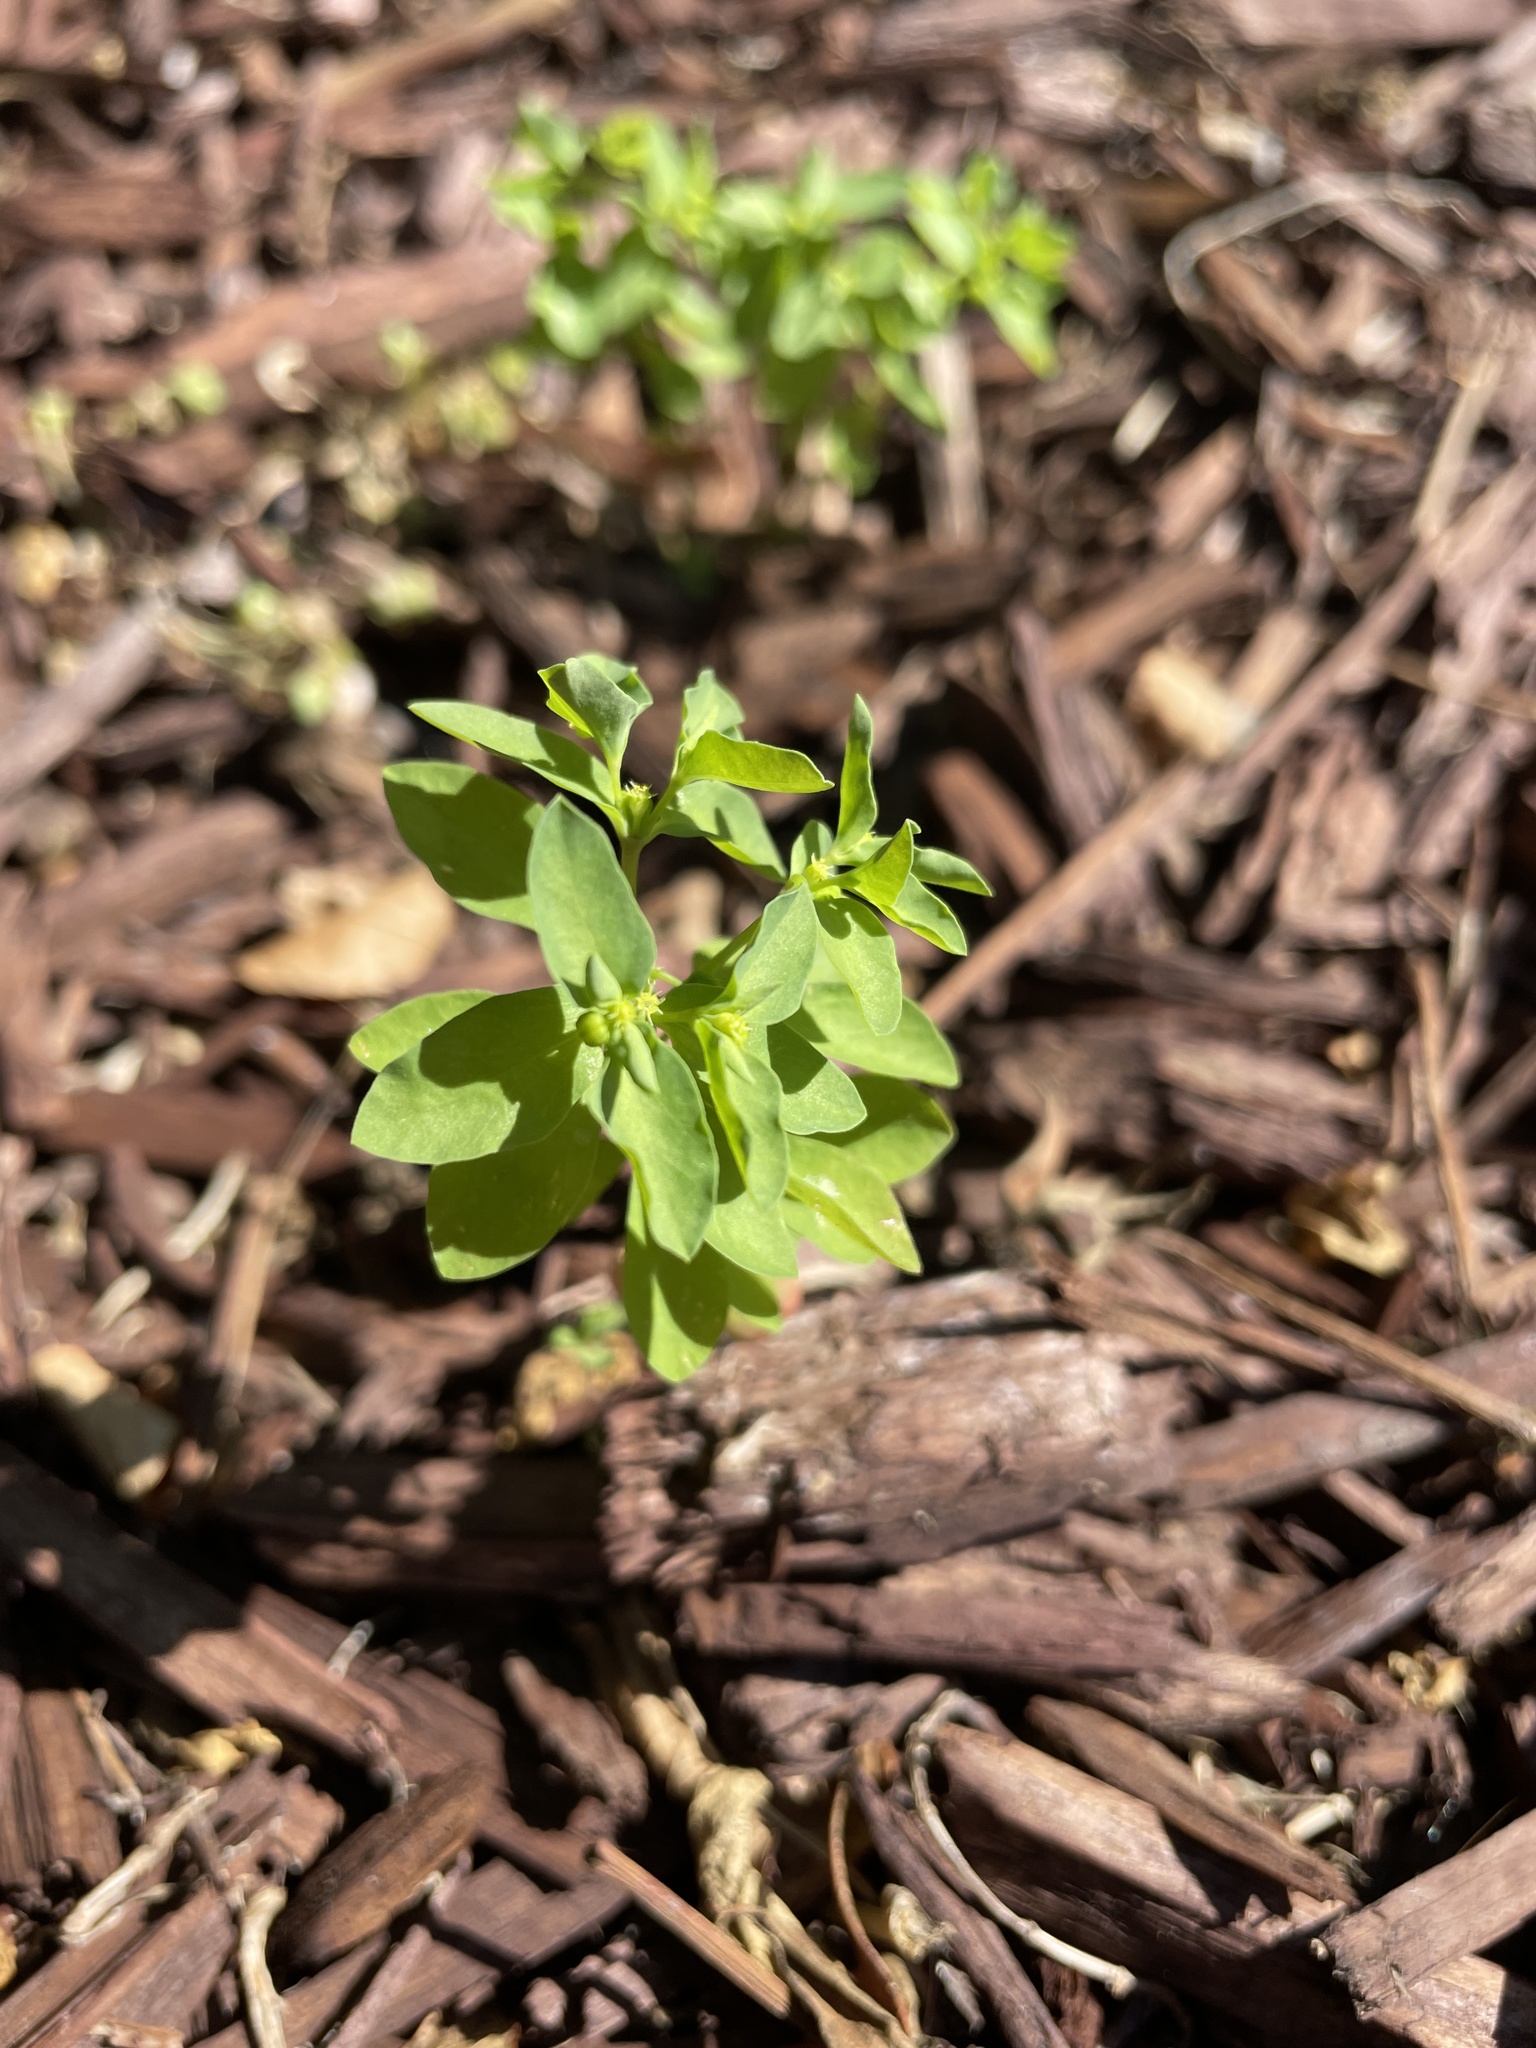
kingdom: Plantae
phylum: Tracheophyta
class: Magnoliopsida
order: Malpighiales
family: Euphorbiaceae
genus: Euphorbia
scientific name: Euphorbia peplus
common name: Petty spurge
